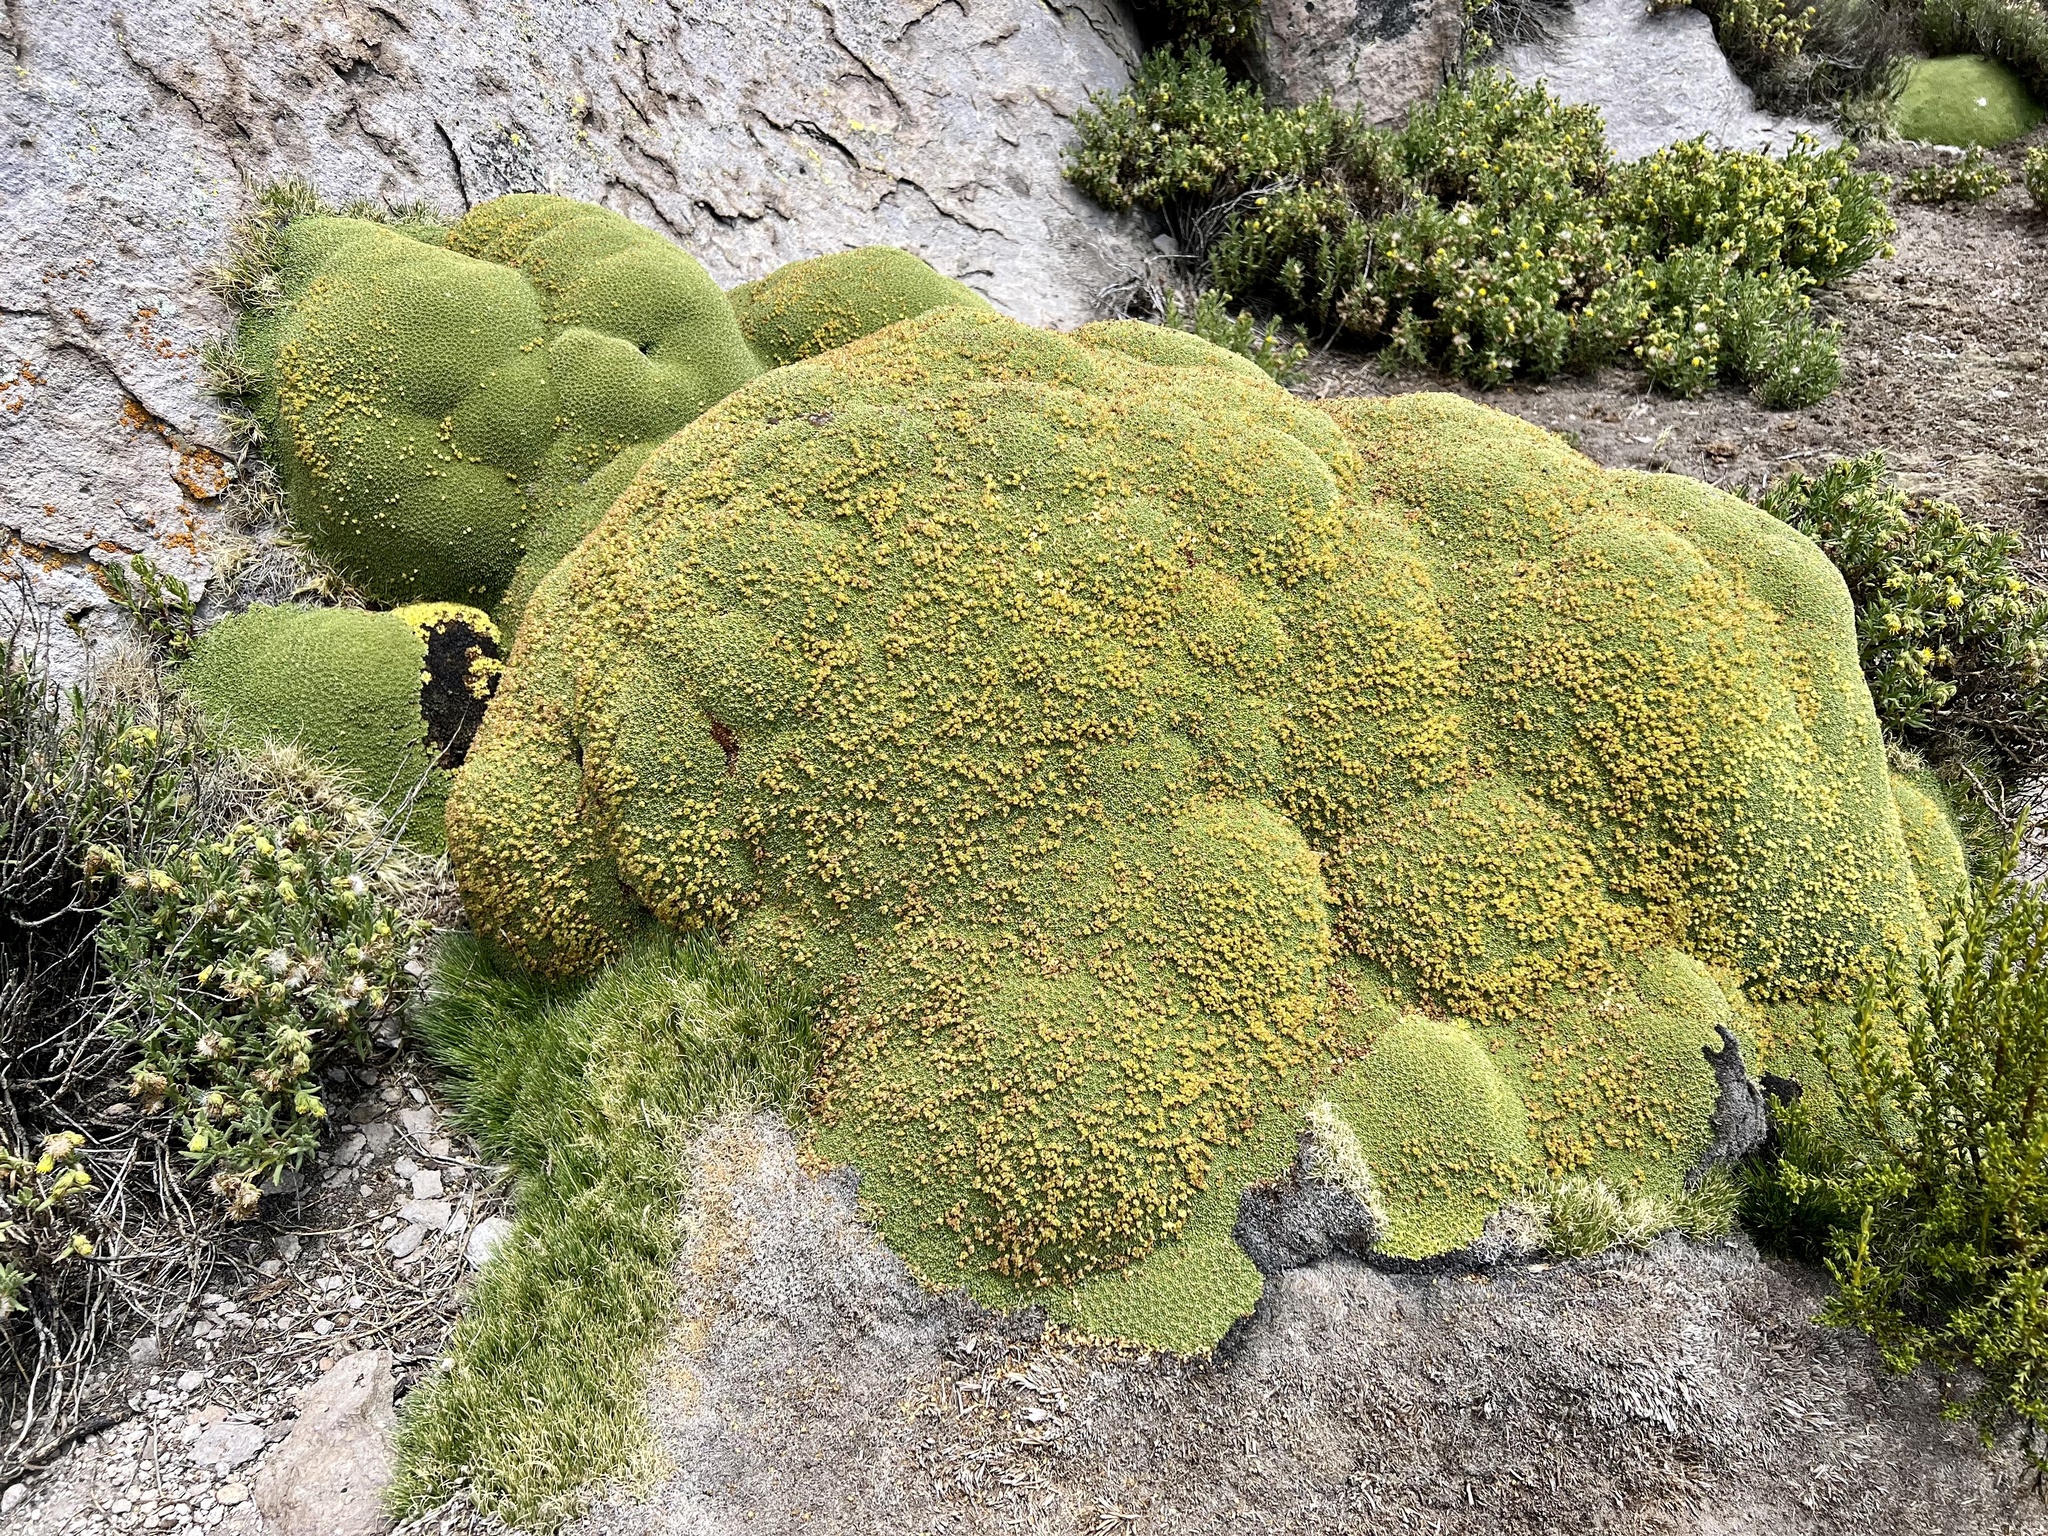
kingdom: Plantae
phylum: Tracheophyta
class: Magnoliopsida
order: Apiales
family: Apiaceae
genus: Azorella
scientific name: Azorella compacta
